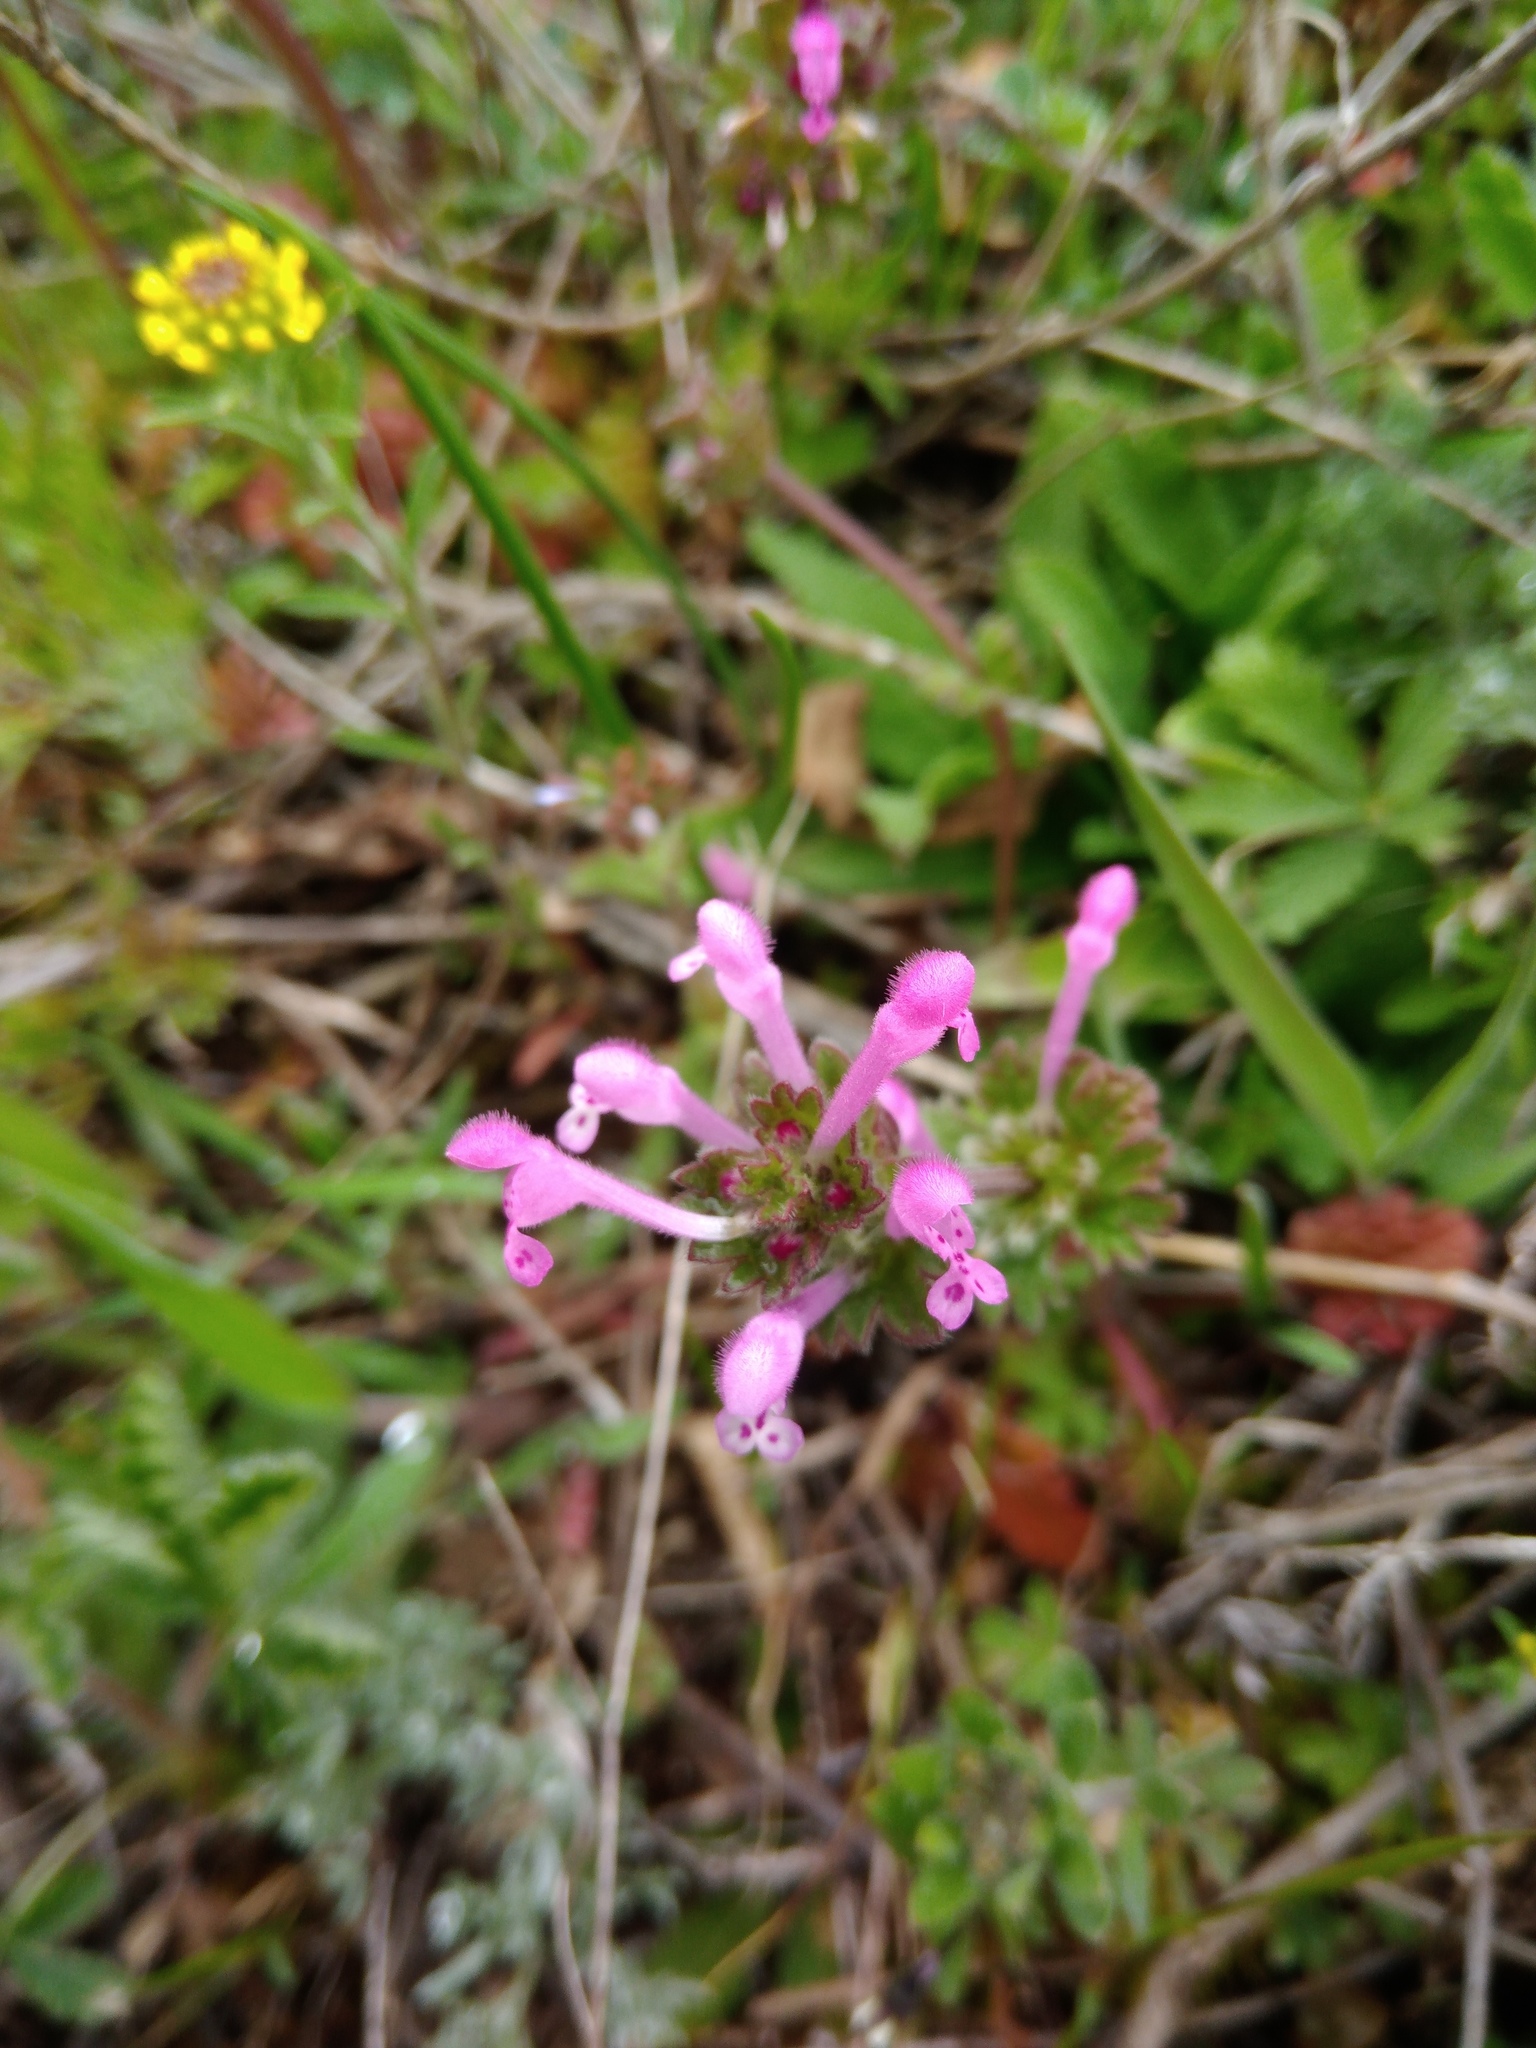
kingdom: Plantae
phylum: Tracheophyta
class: Magnoliopsida
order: Lamiales
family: Lamiaceae
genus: Lamium
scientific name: Lamium amplexicaule
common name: Henbit dead-nettle
